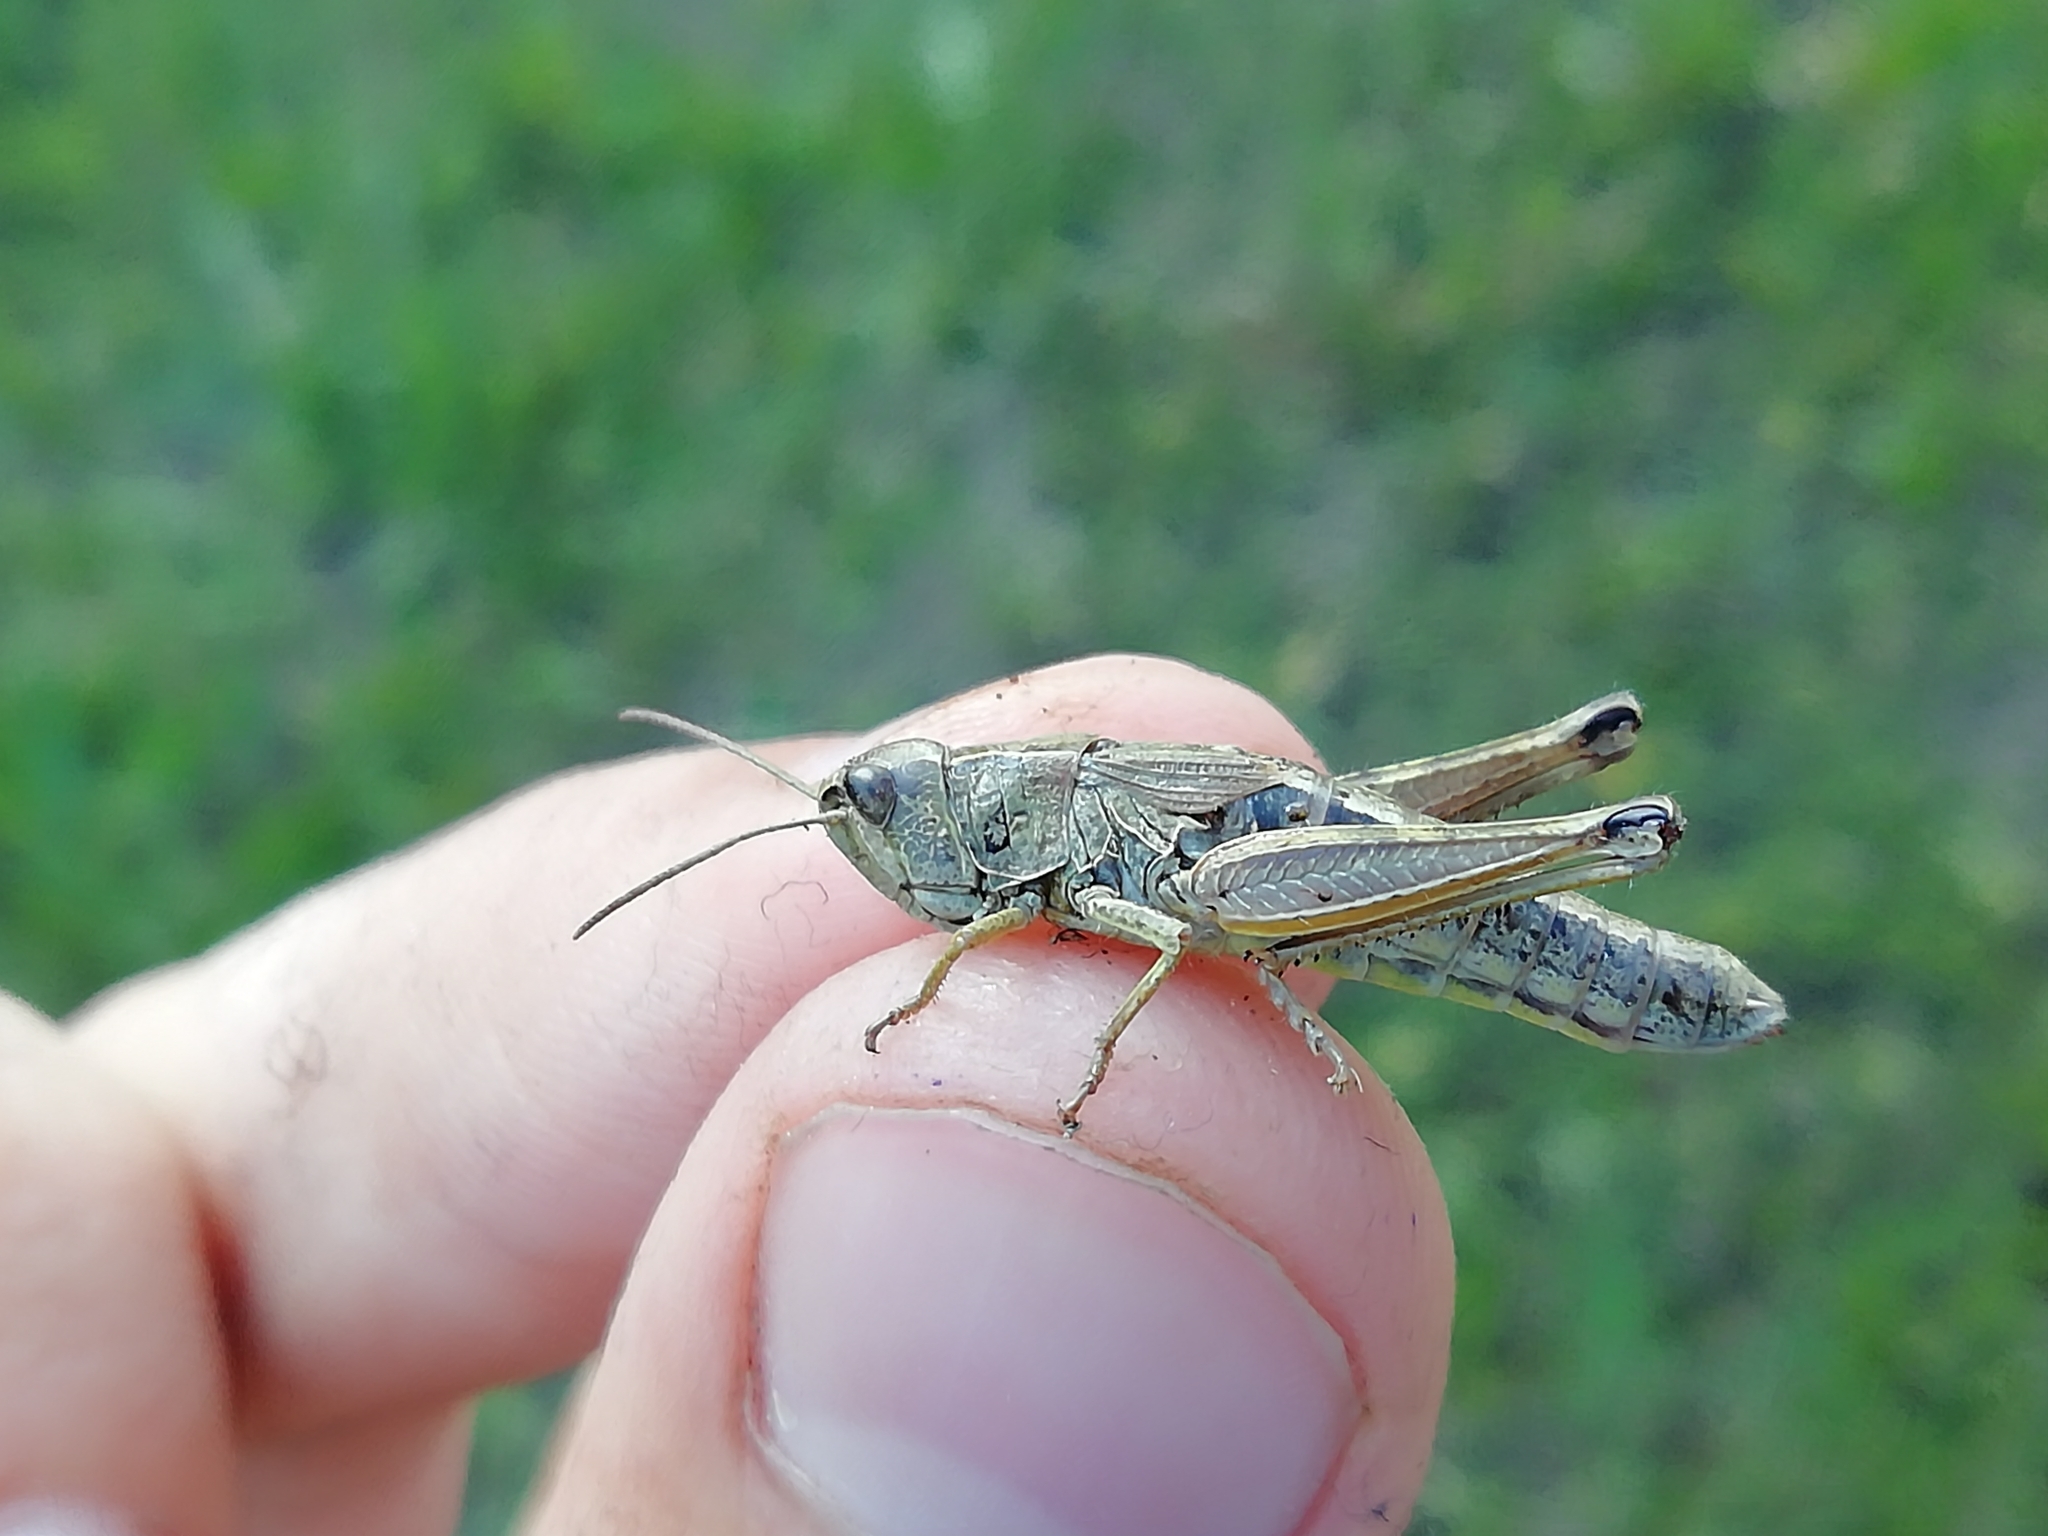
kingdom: Animalia
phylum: Arthropoda
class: Insecta
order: Orthoptera
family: Acrididae
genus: Chorthippus
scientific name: Chorthippus fallax
